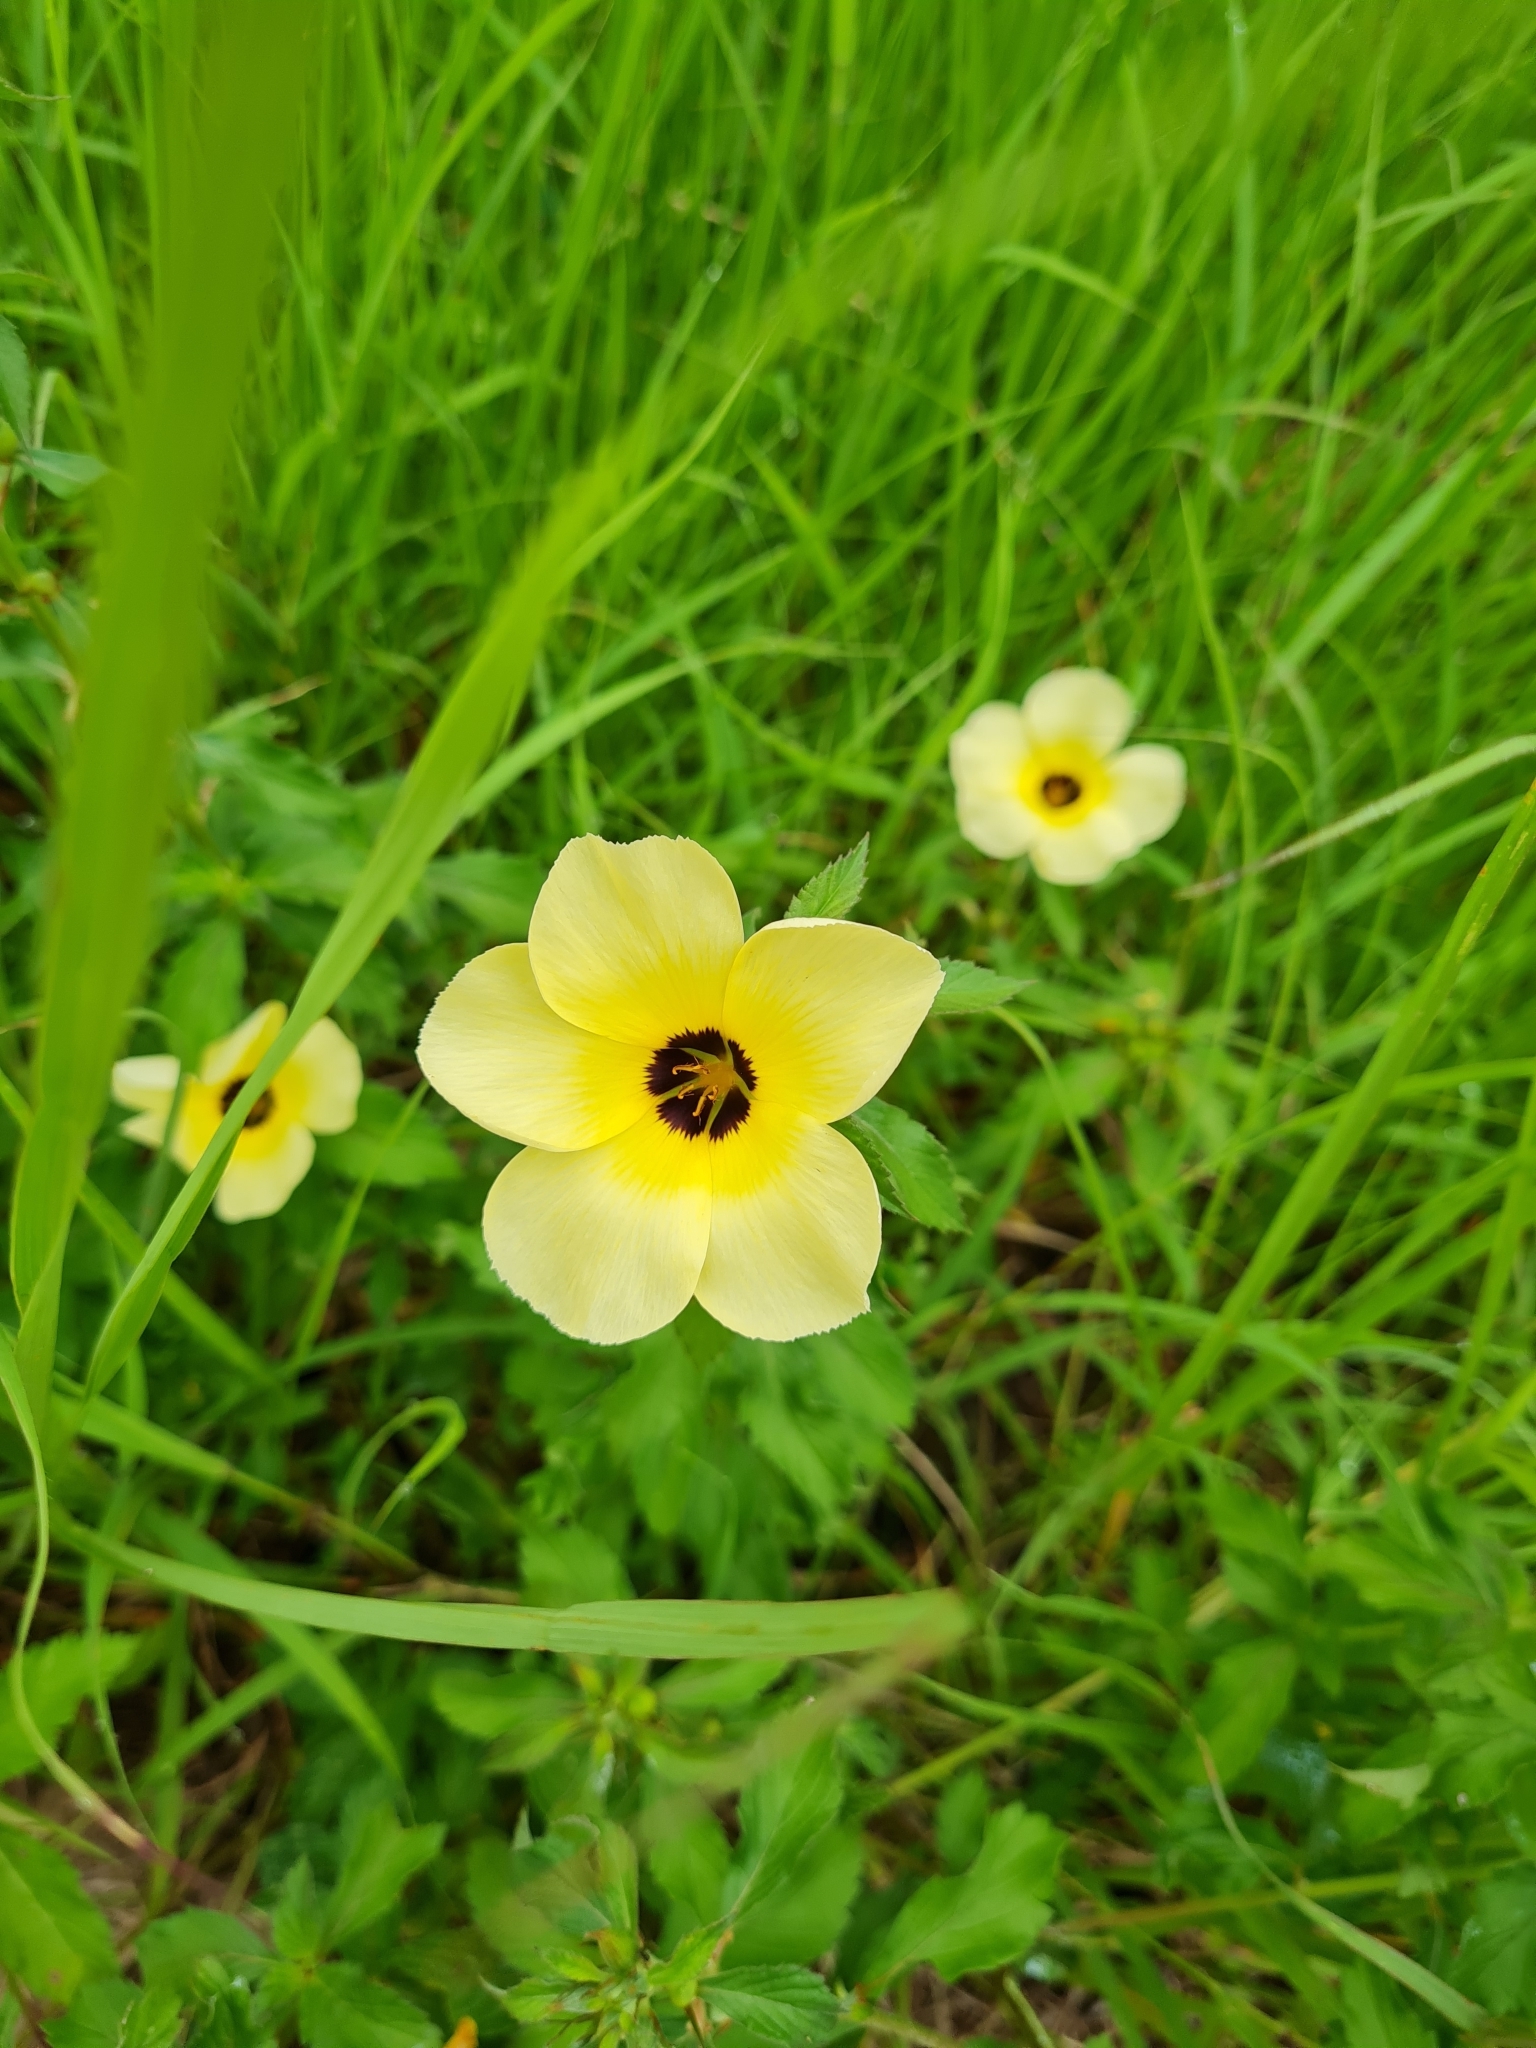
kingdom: Plantae
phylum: Tracheophyta
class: Magnoliopsida
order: Malpighiales
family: Turneraceae
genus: Turnera
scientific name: Turnera subulata
